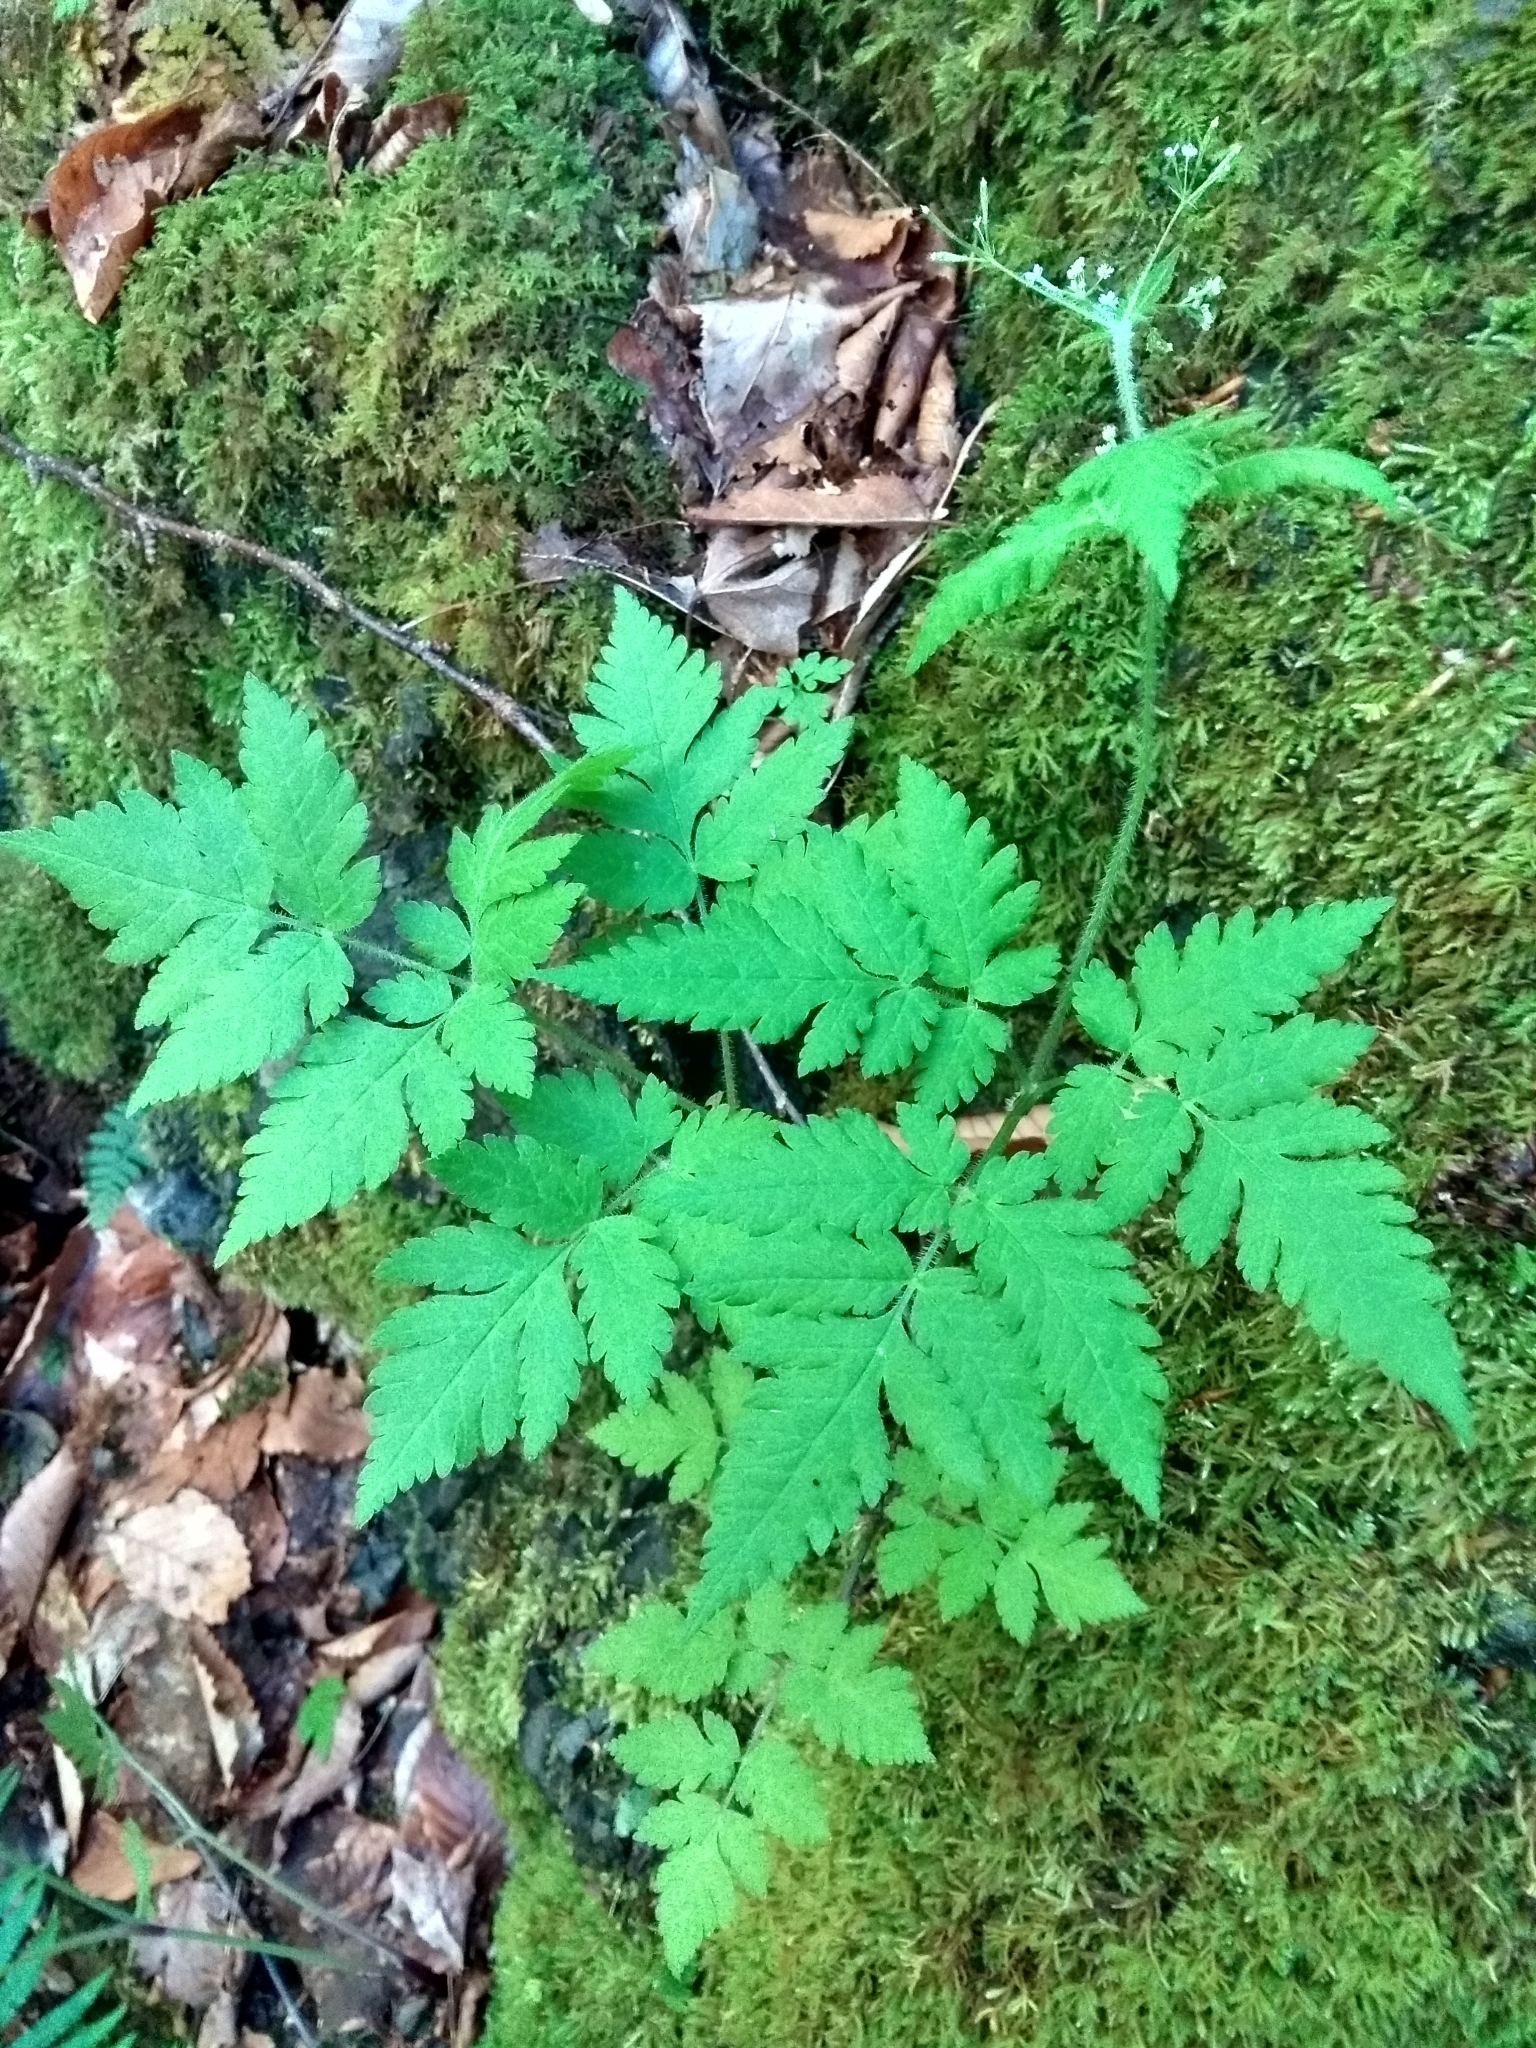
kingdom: Plantae
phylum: Tracheophyta
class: Magnoliopsida
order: Apiales
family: Apiaceae
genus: Osmorhiza
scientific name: Osmorhiza claytonii
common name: Hairy sweet cicely
